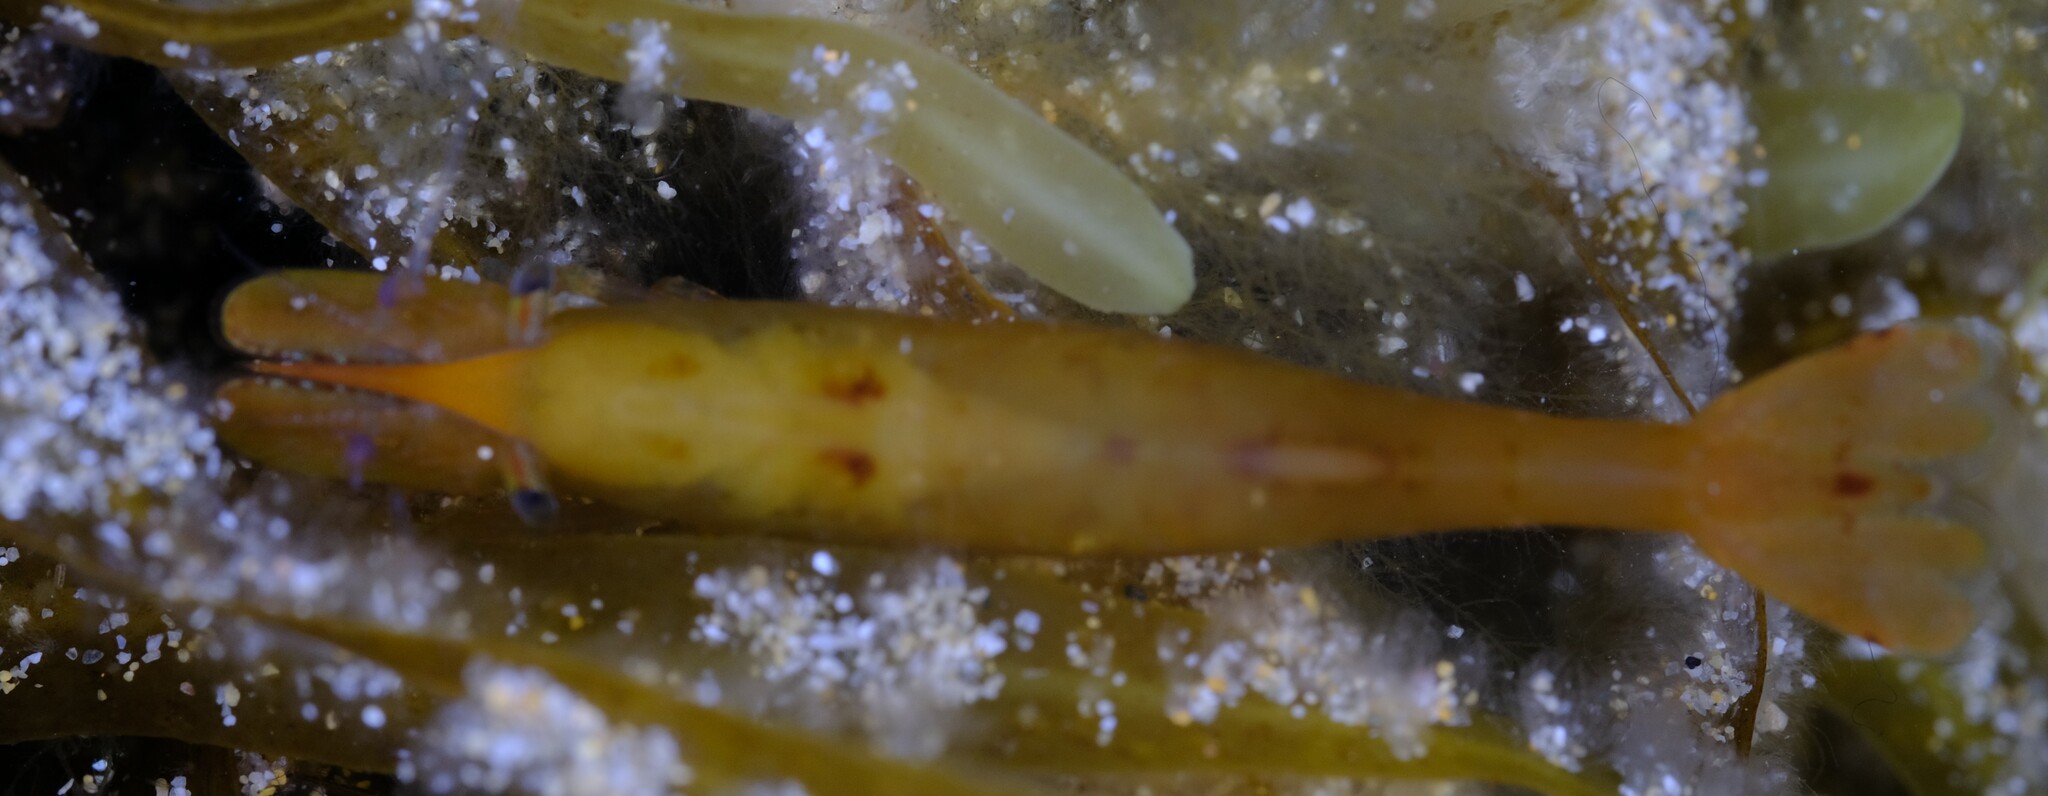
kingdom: Animalia
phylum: Arthropoda
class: Malacostraca
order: Decapoda
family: Hippolytidae
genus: Hippolyte
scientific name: Hippolyte australiensis
